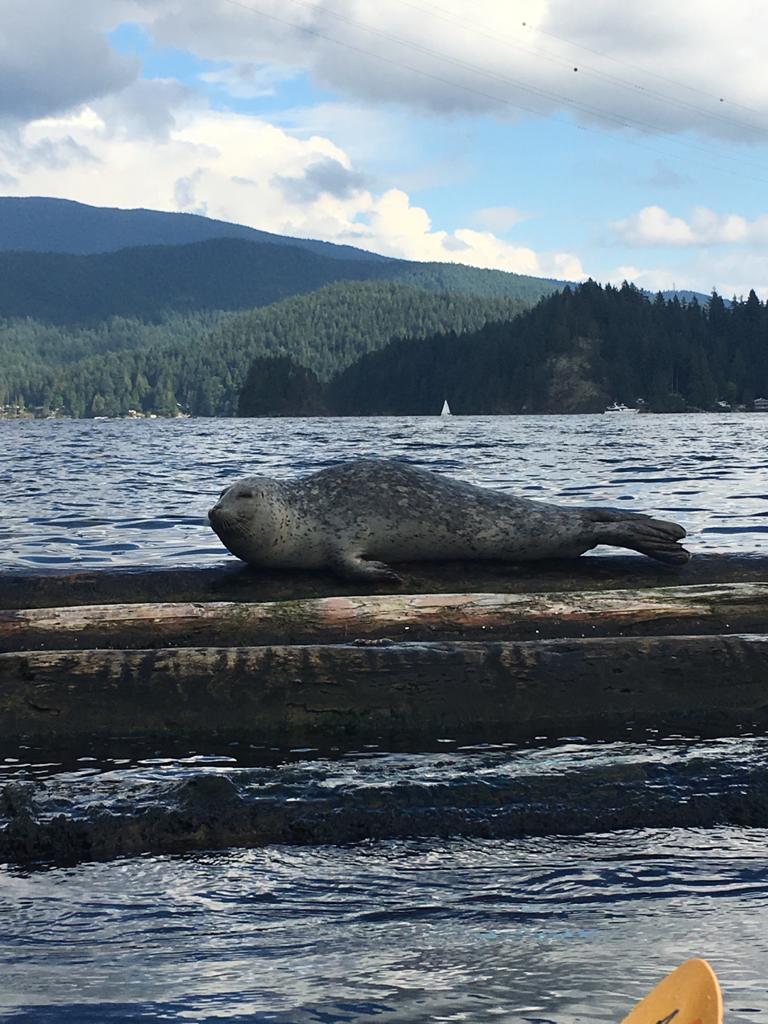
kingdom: Animalia
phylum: Chordata
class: Mammalia
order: Carnivora
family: Phocidae
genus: Phoca
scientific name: Phoca vitulina
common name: Harbor seal
